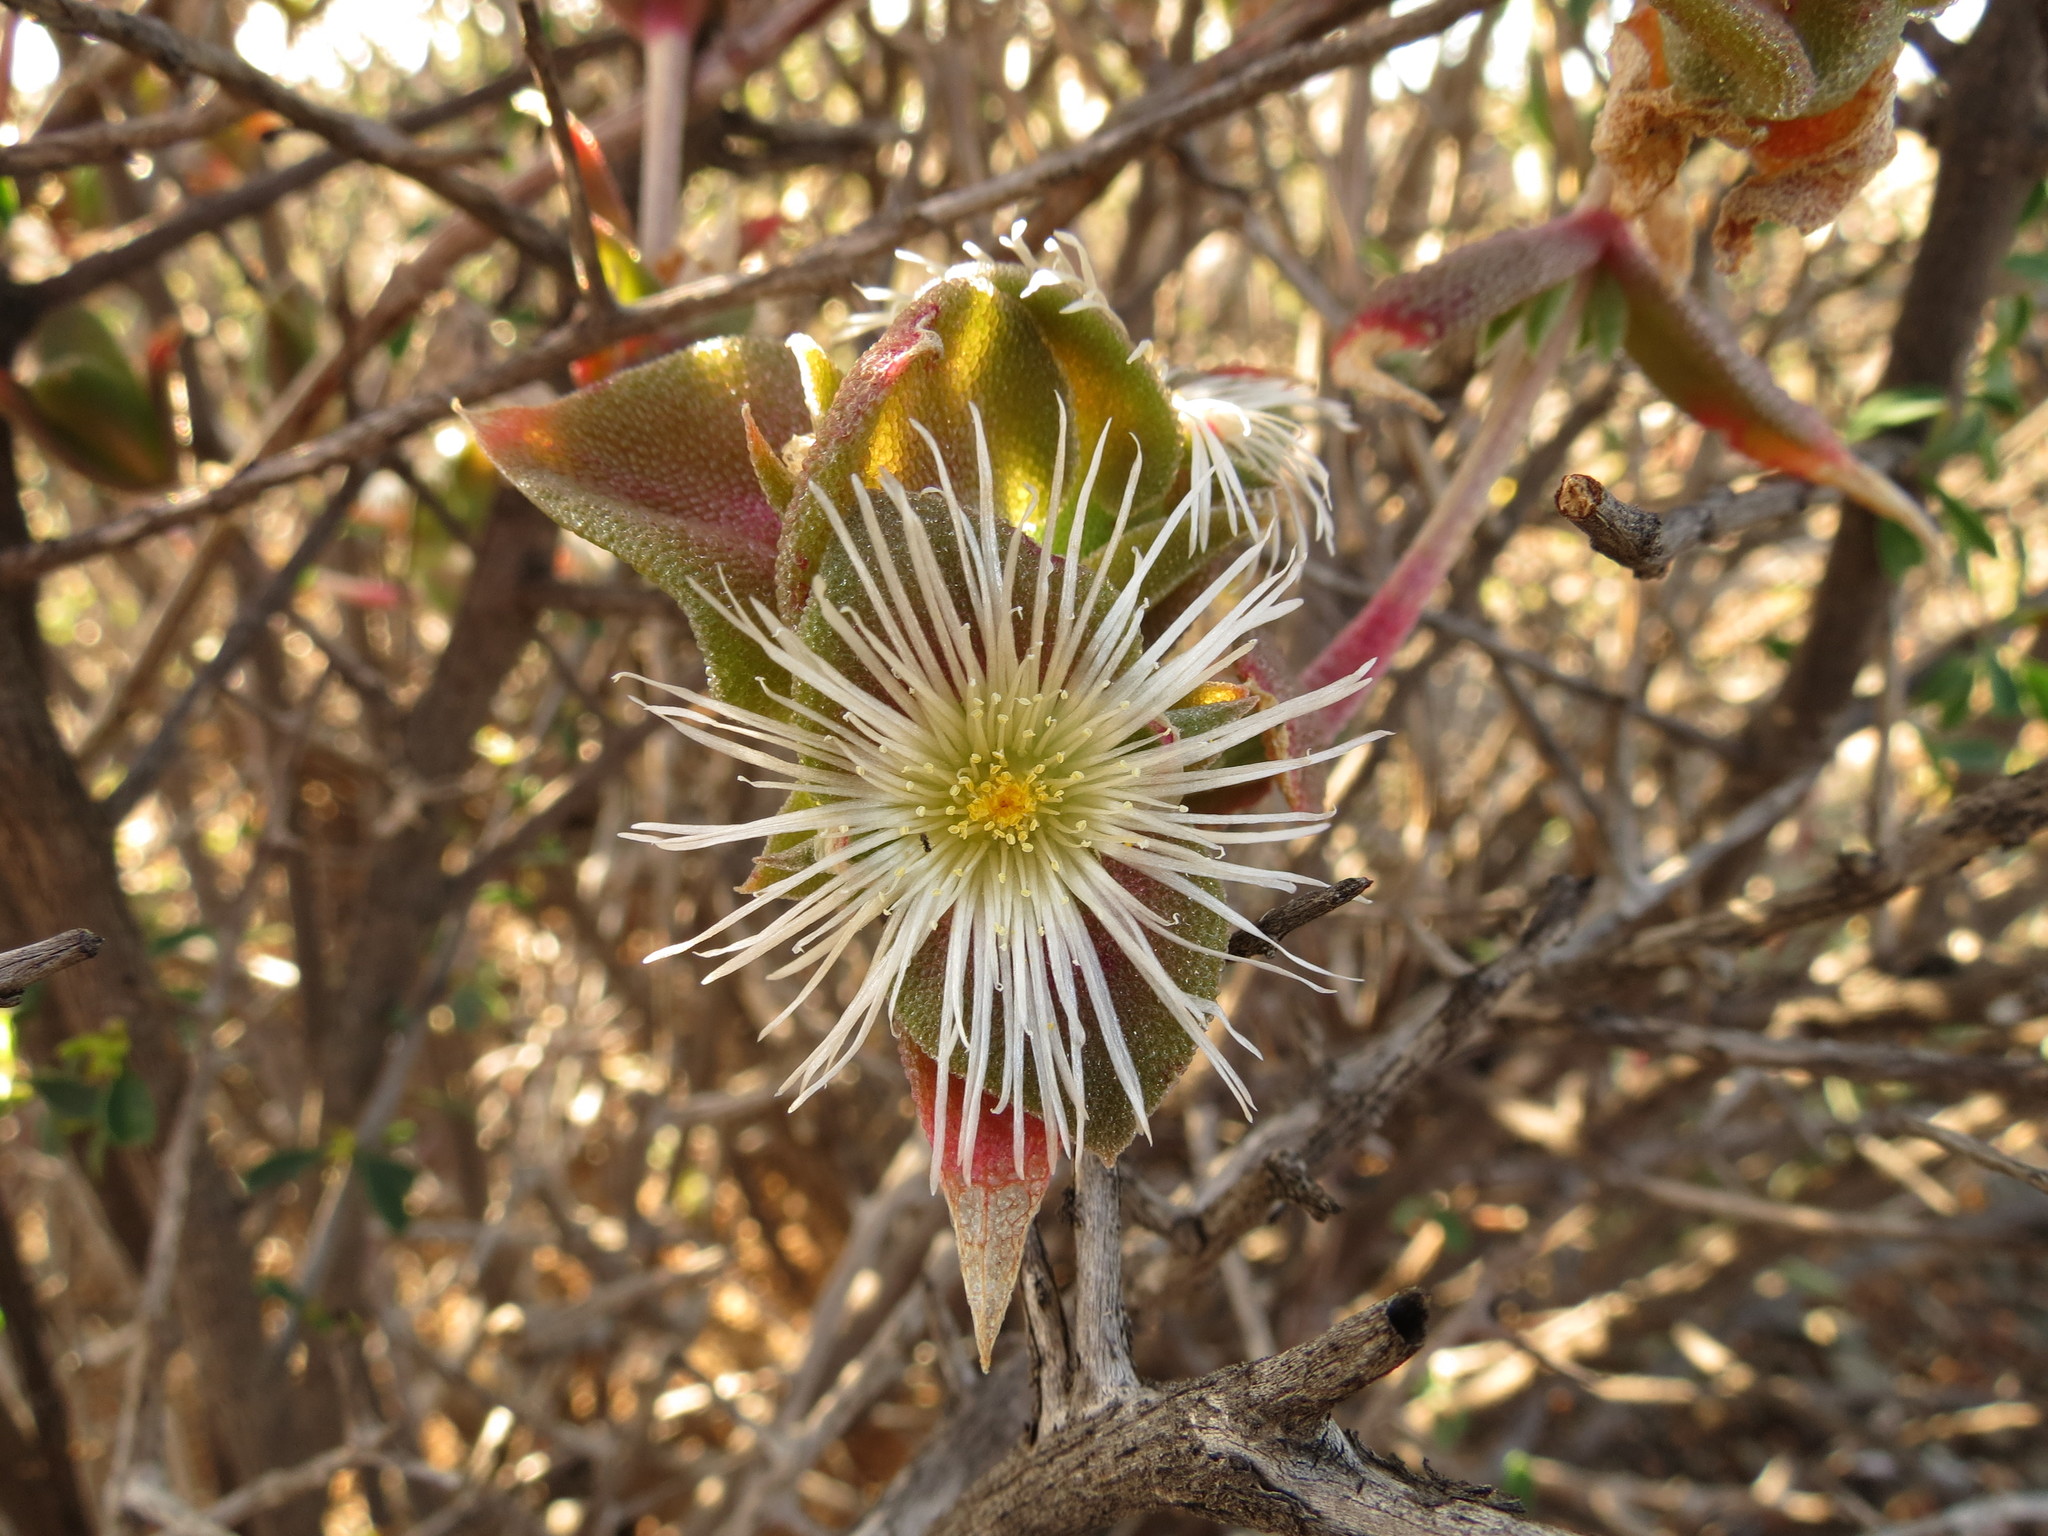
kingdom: Plantae
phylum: Tracheophyta
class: Magnoliopsida
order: Caryophyllales
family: Aizoaceae
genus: Mesembryanthemum
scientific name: Mesembryanthemum tortuosum
